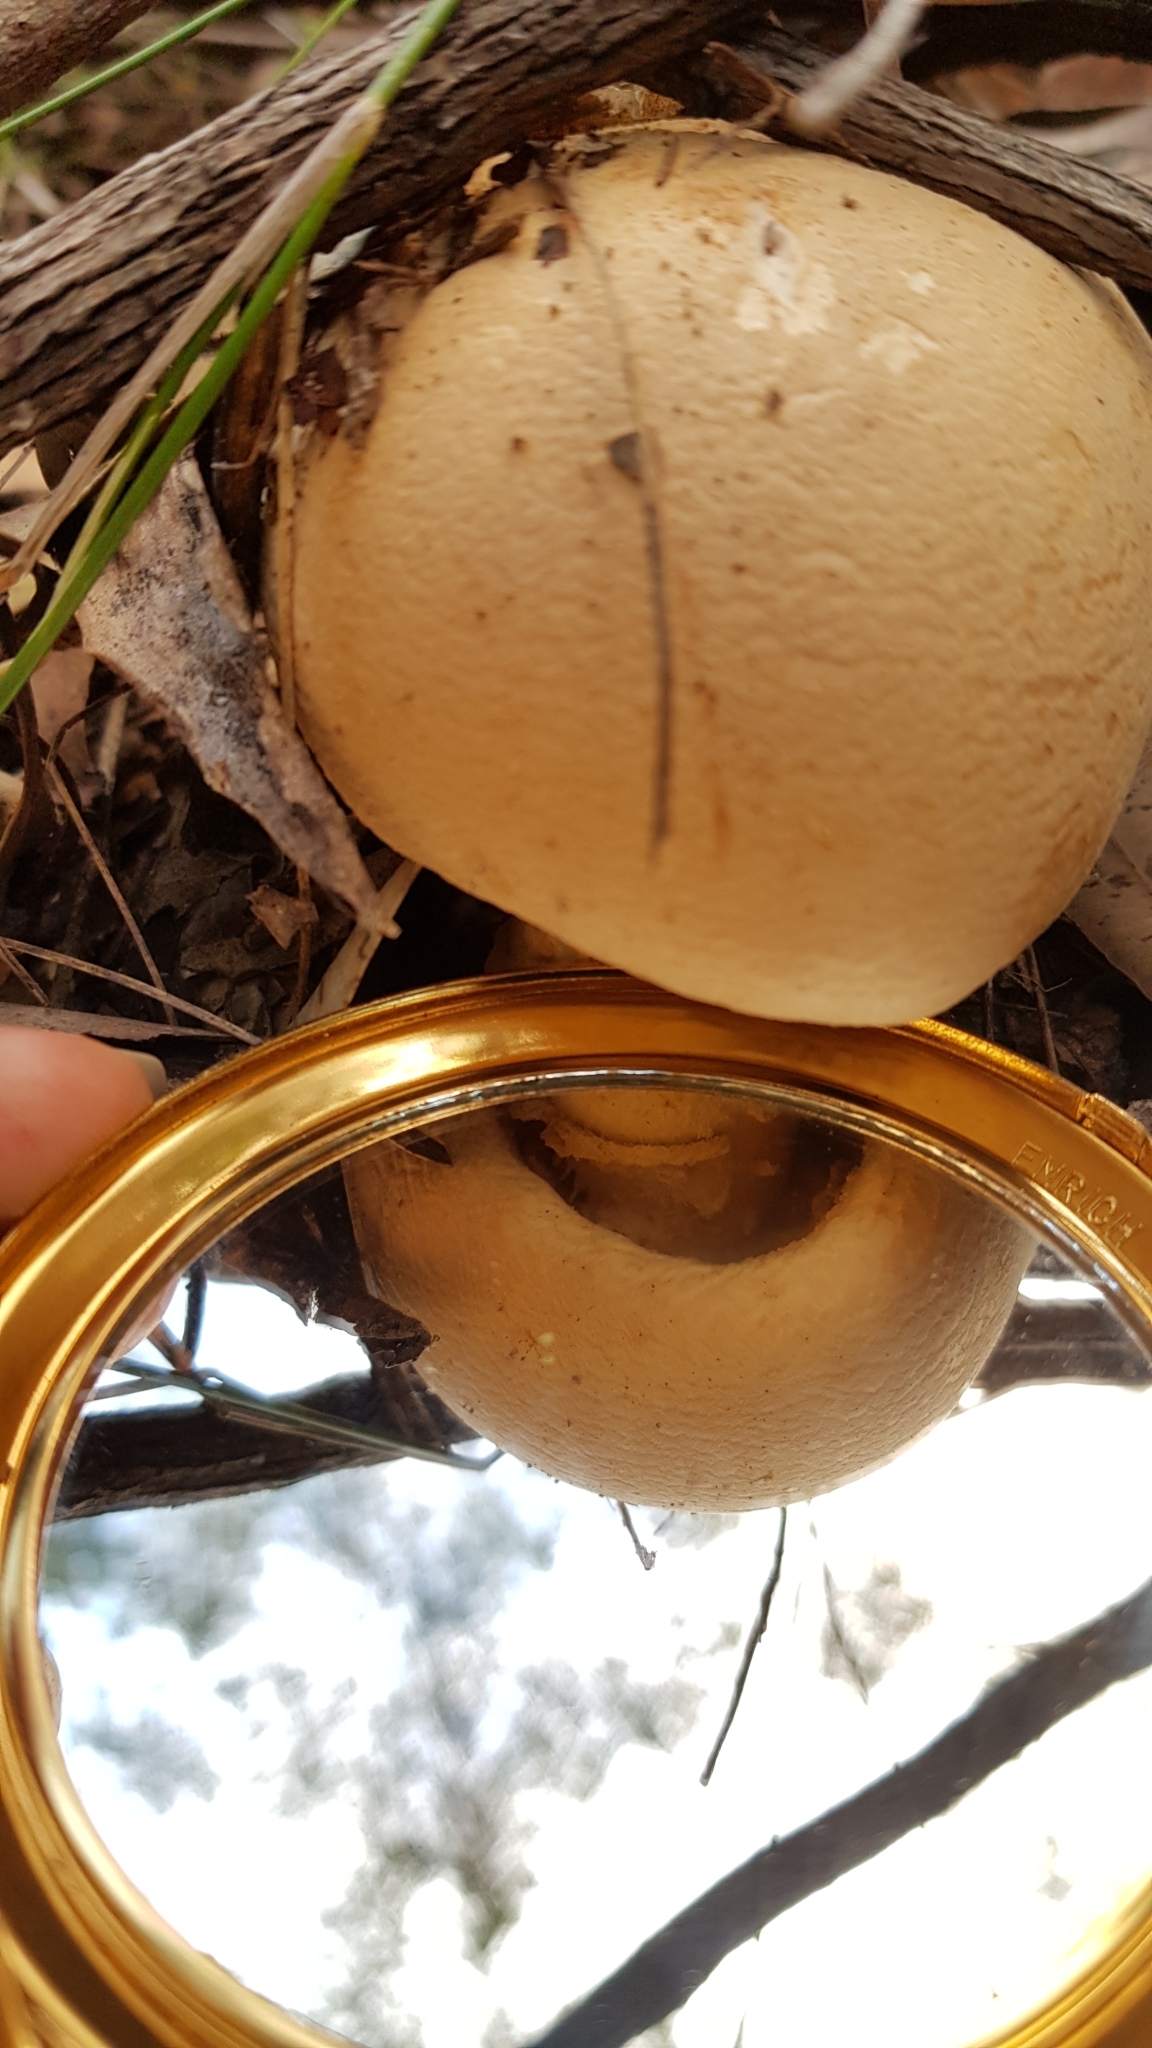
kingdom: Fungi
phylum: Basidiomycota
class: Agaricomycetes
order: Agaricales
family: Amanitaceae
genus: Amanita
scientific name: Amanita ochrophylla
